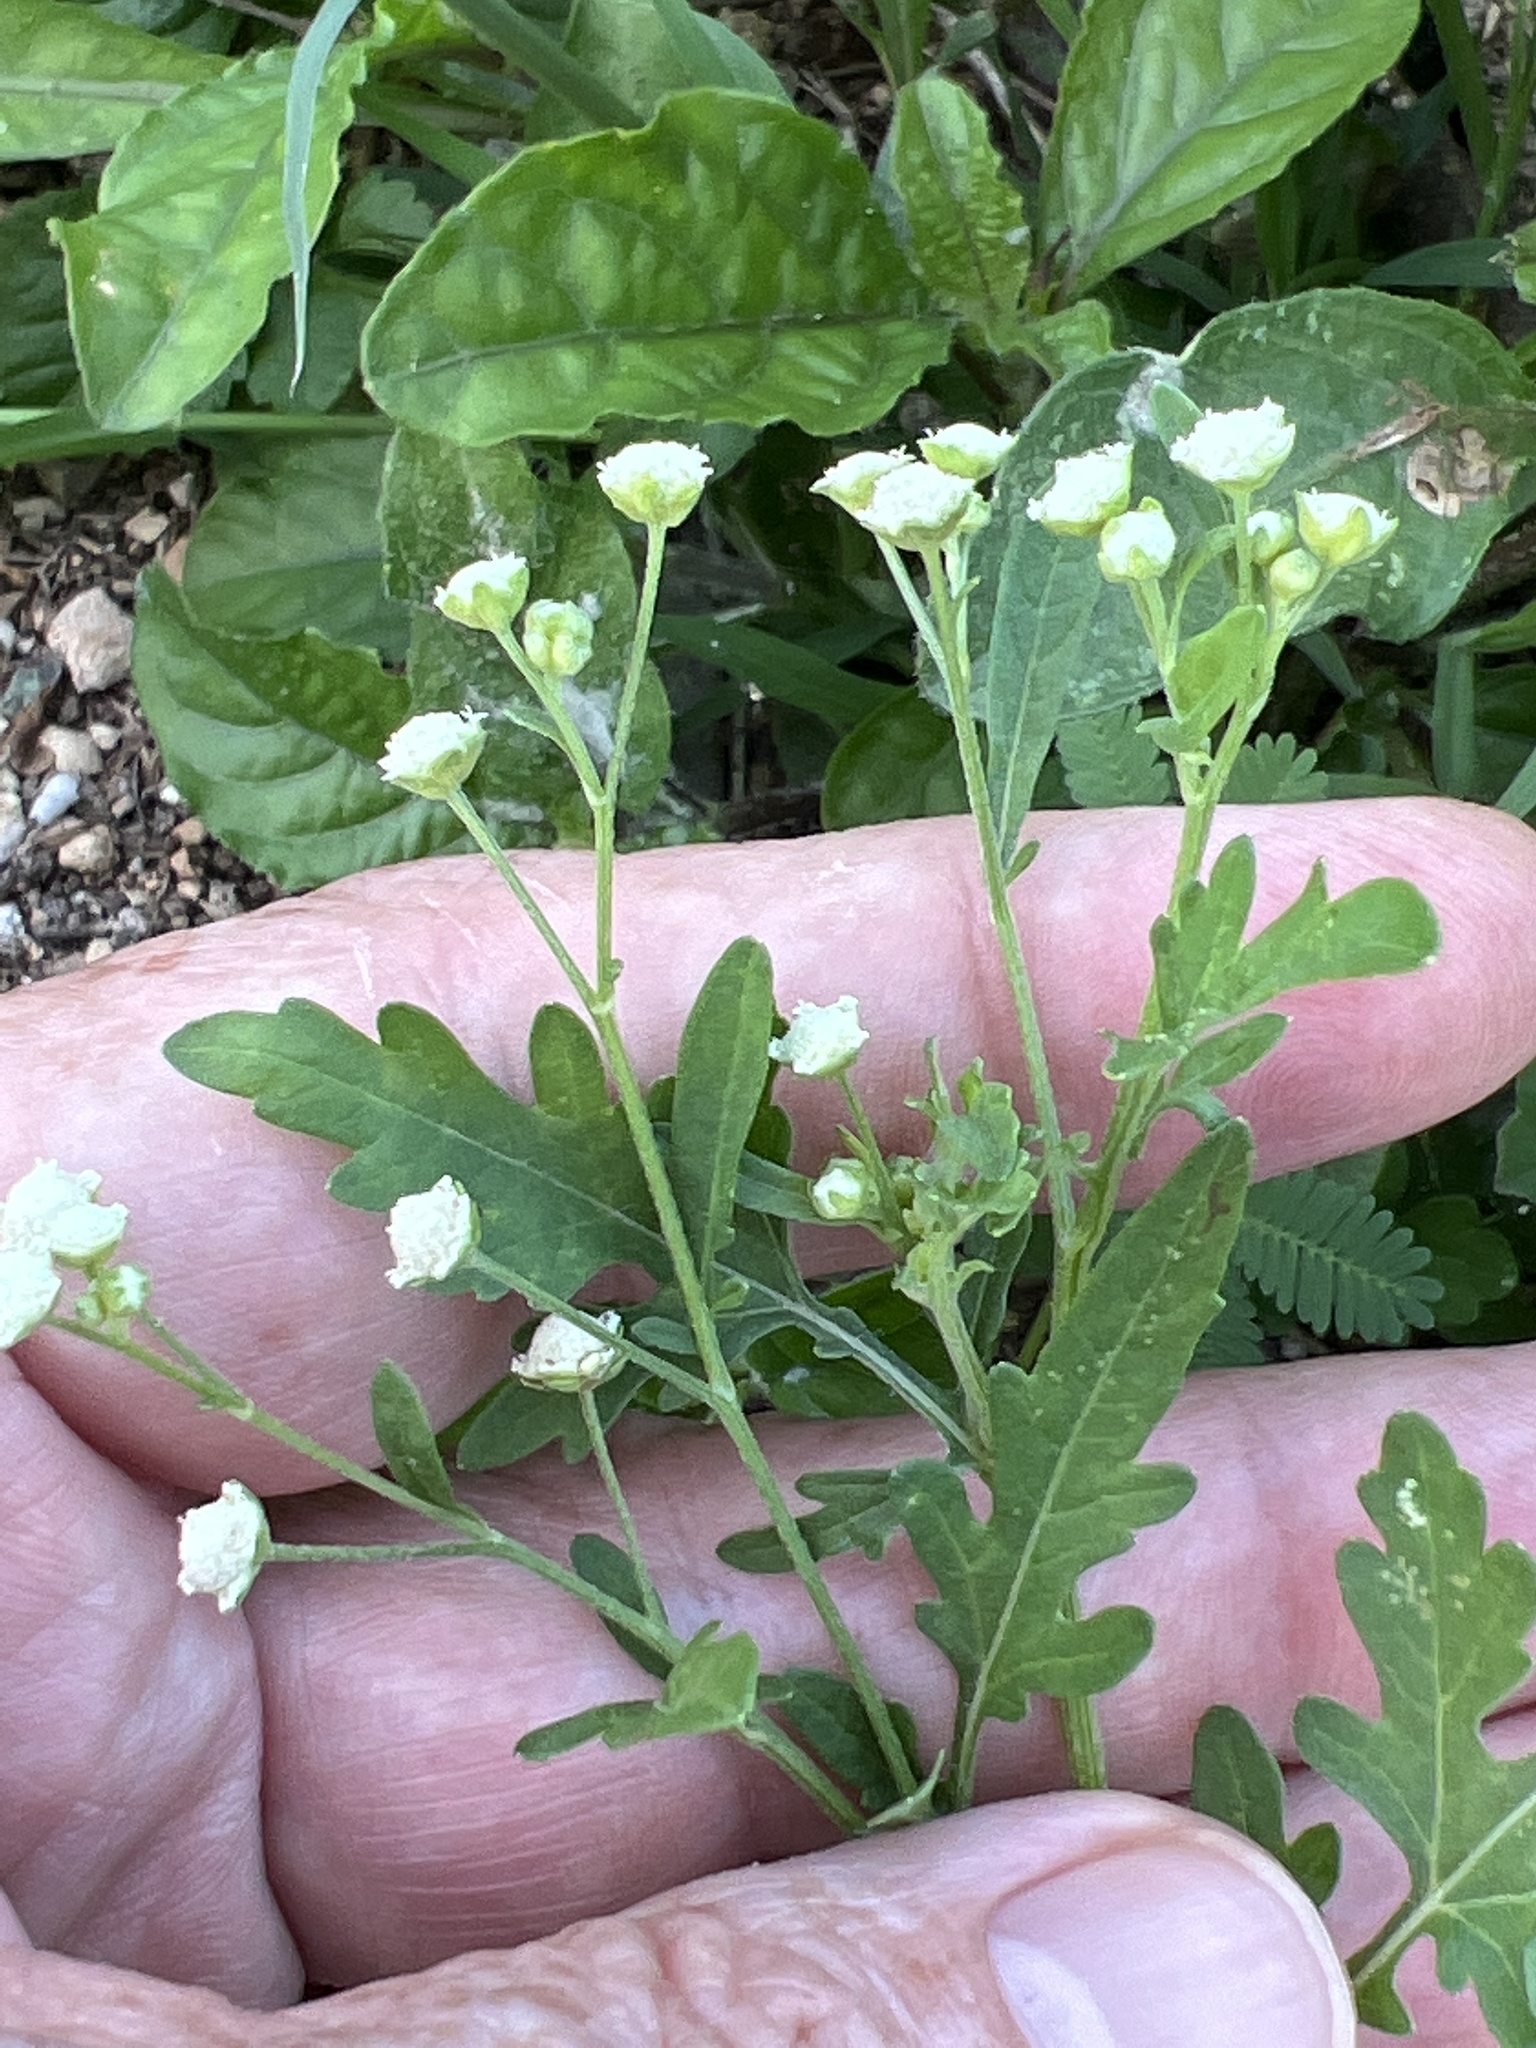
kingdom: Plantae
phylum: Tracheophyta
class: Magnoliopsida
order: Asterales
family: Asteraceae
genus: Parthenium
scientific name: Parthenium hysterophorus
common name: Santa maria feverfew
